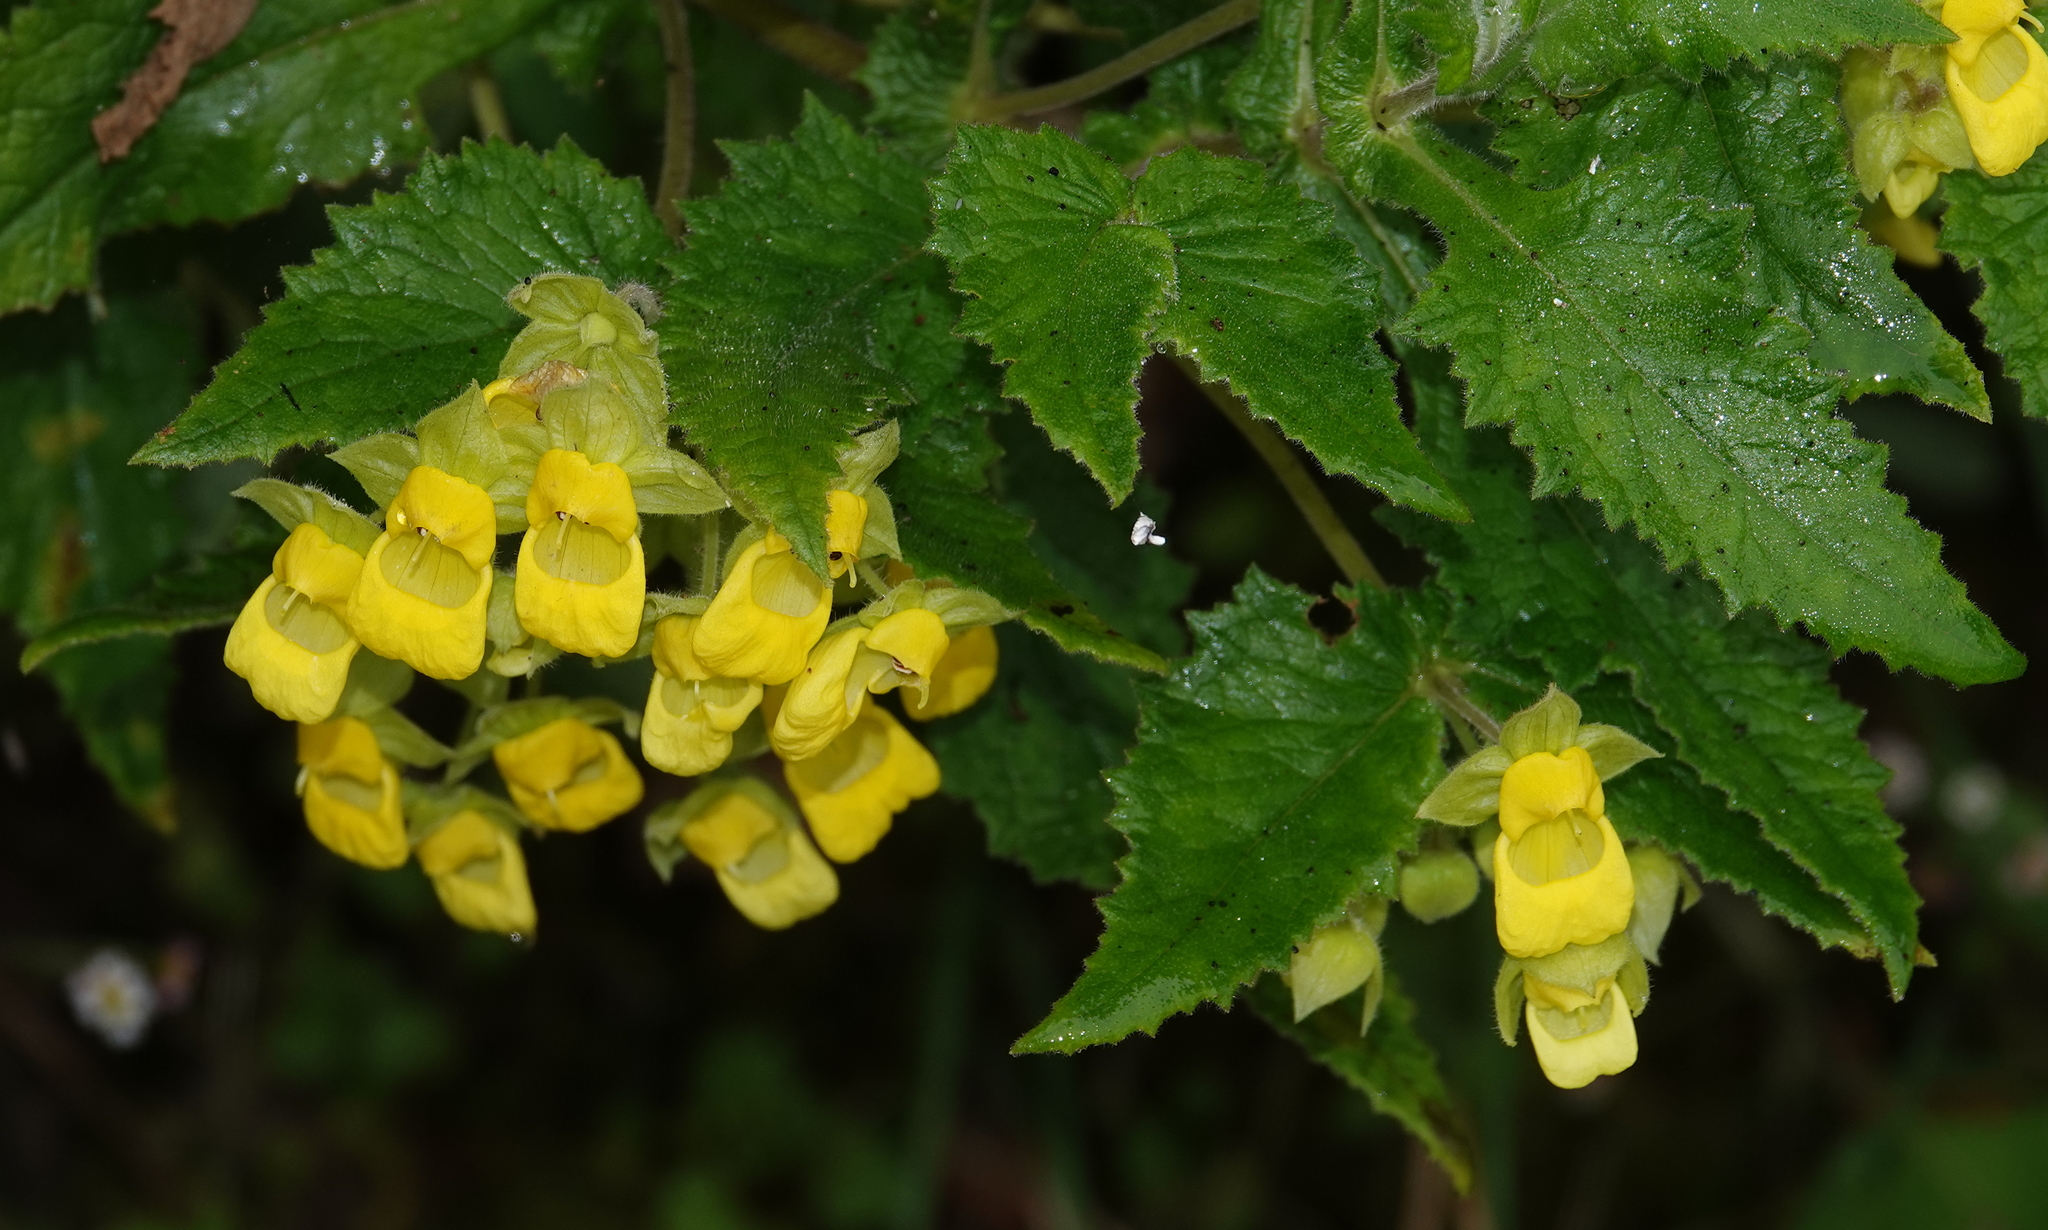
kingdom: Plantae
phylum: Tracheophyta
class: Magnoliopsida
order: Lamiales
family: Calceolariaceae
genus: Calceolaria
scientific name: Calceolaria perfoliata
